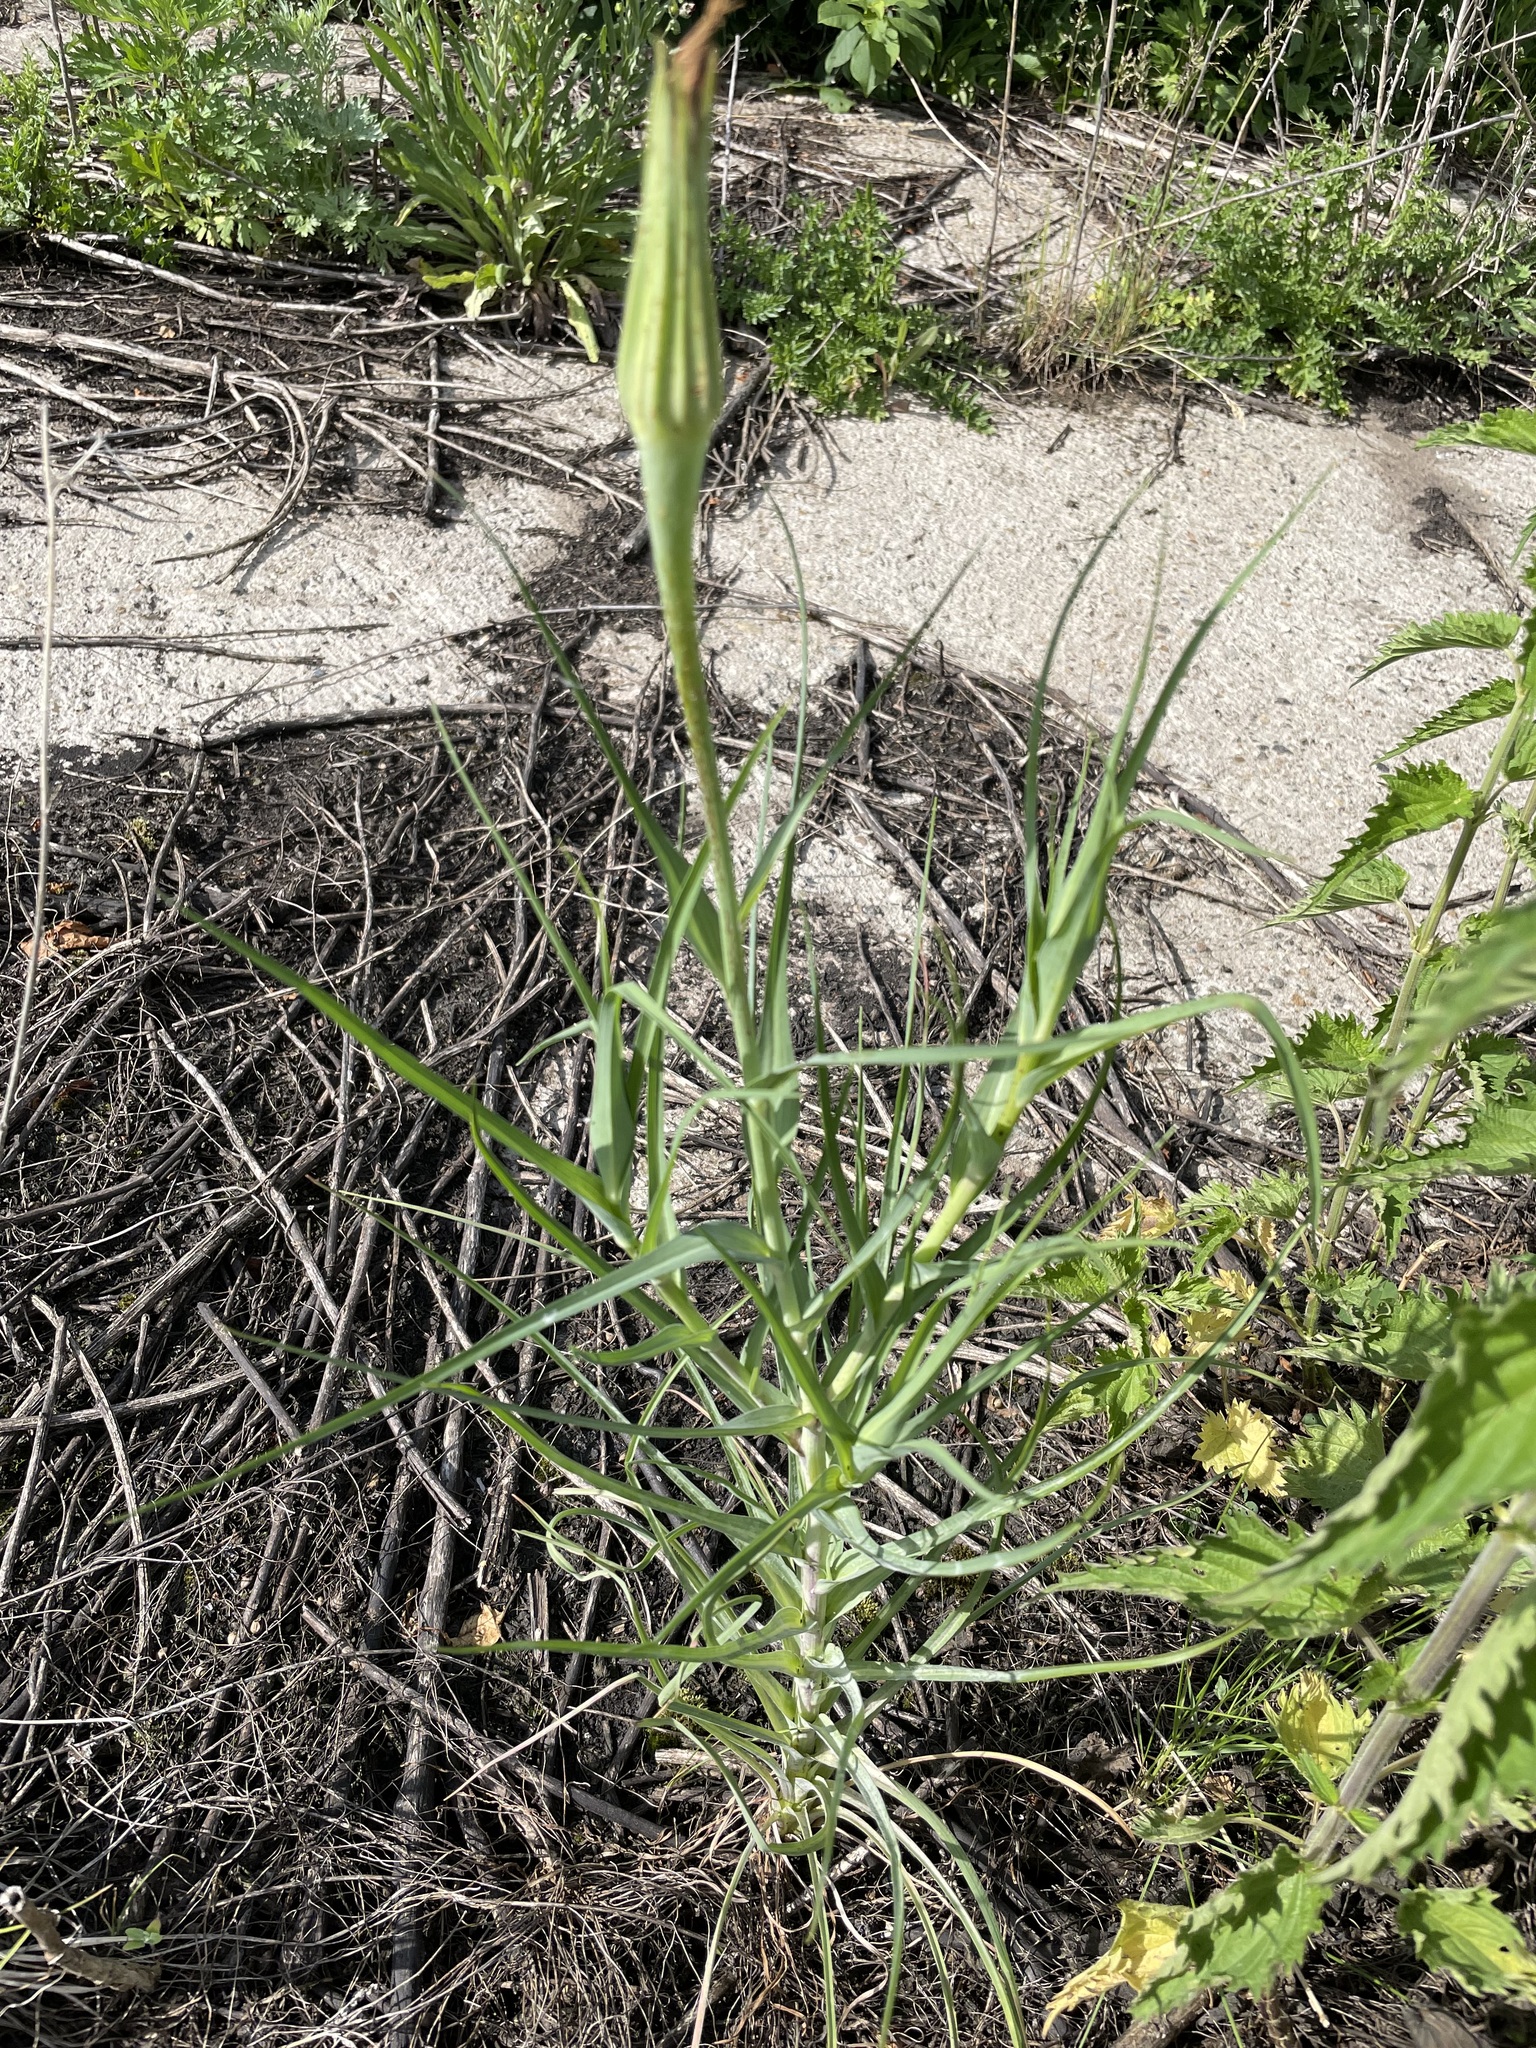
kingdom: Plantae
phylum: Tracheophyta
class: Magnoliopsida
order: Asterales
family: Asteraceae
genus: Tragopogon
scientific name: Tragopogon dubius
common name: Yellow salsify
